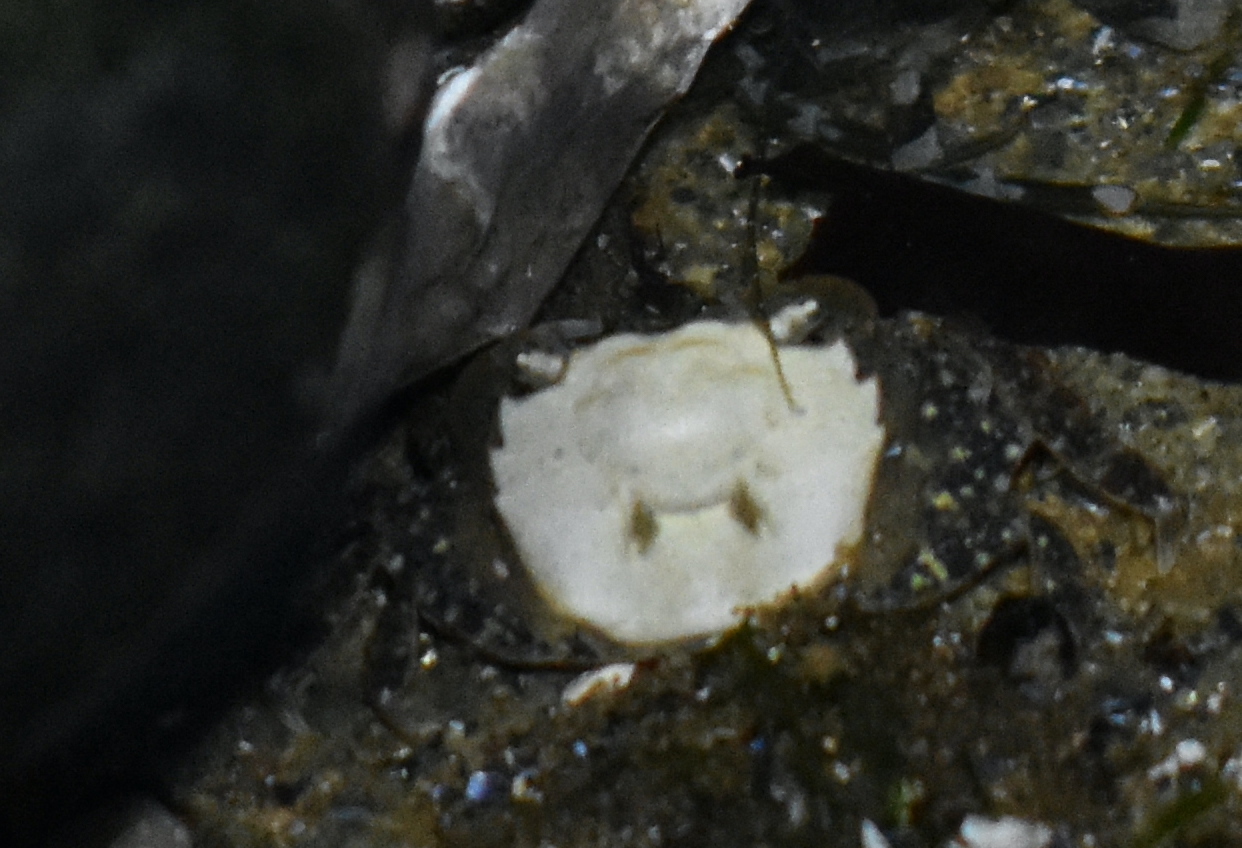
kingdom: Animalia
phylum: Arthropoda
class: Malacostraca
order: Decapoda
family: Varunidae
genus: Hemigrapsus
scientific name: Hemigrapsus oregonensis
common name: Yellow shore crab
